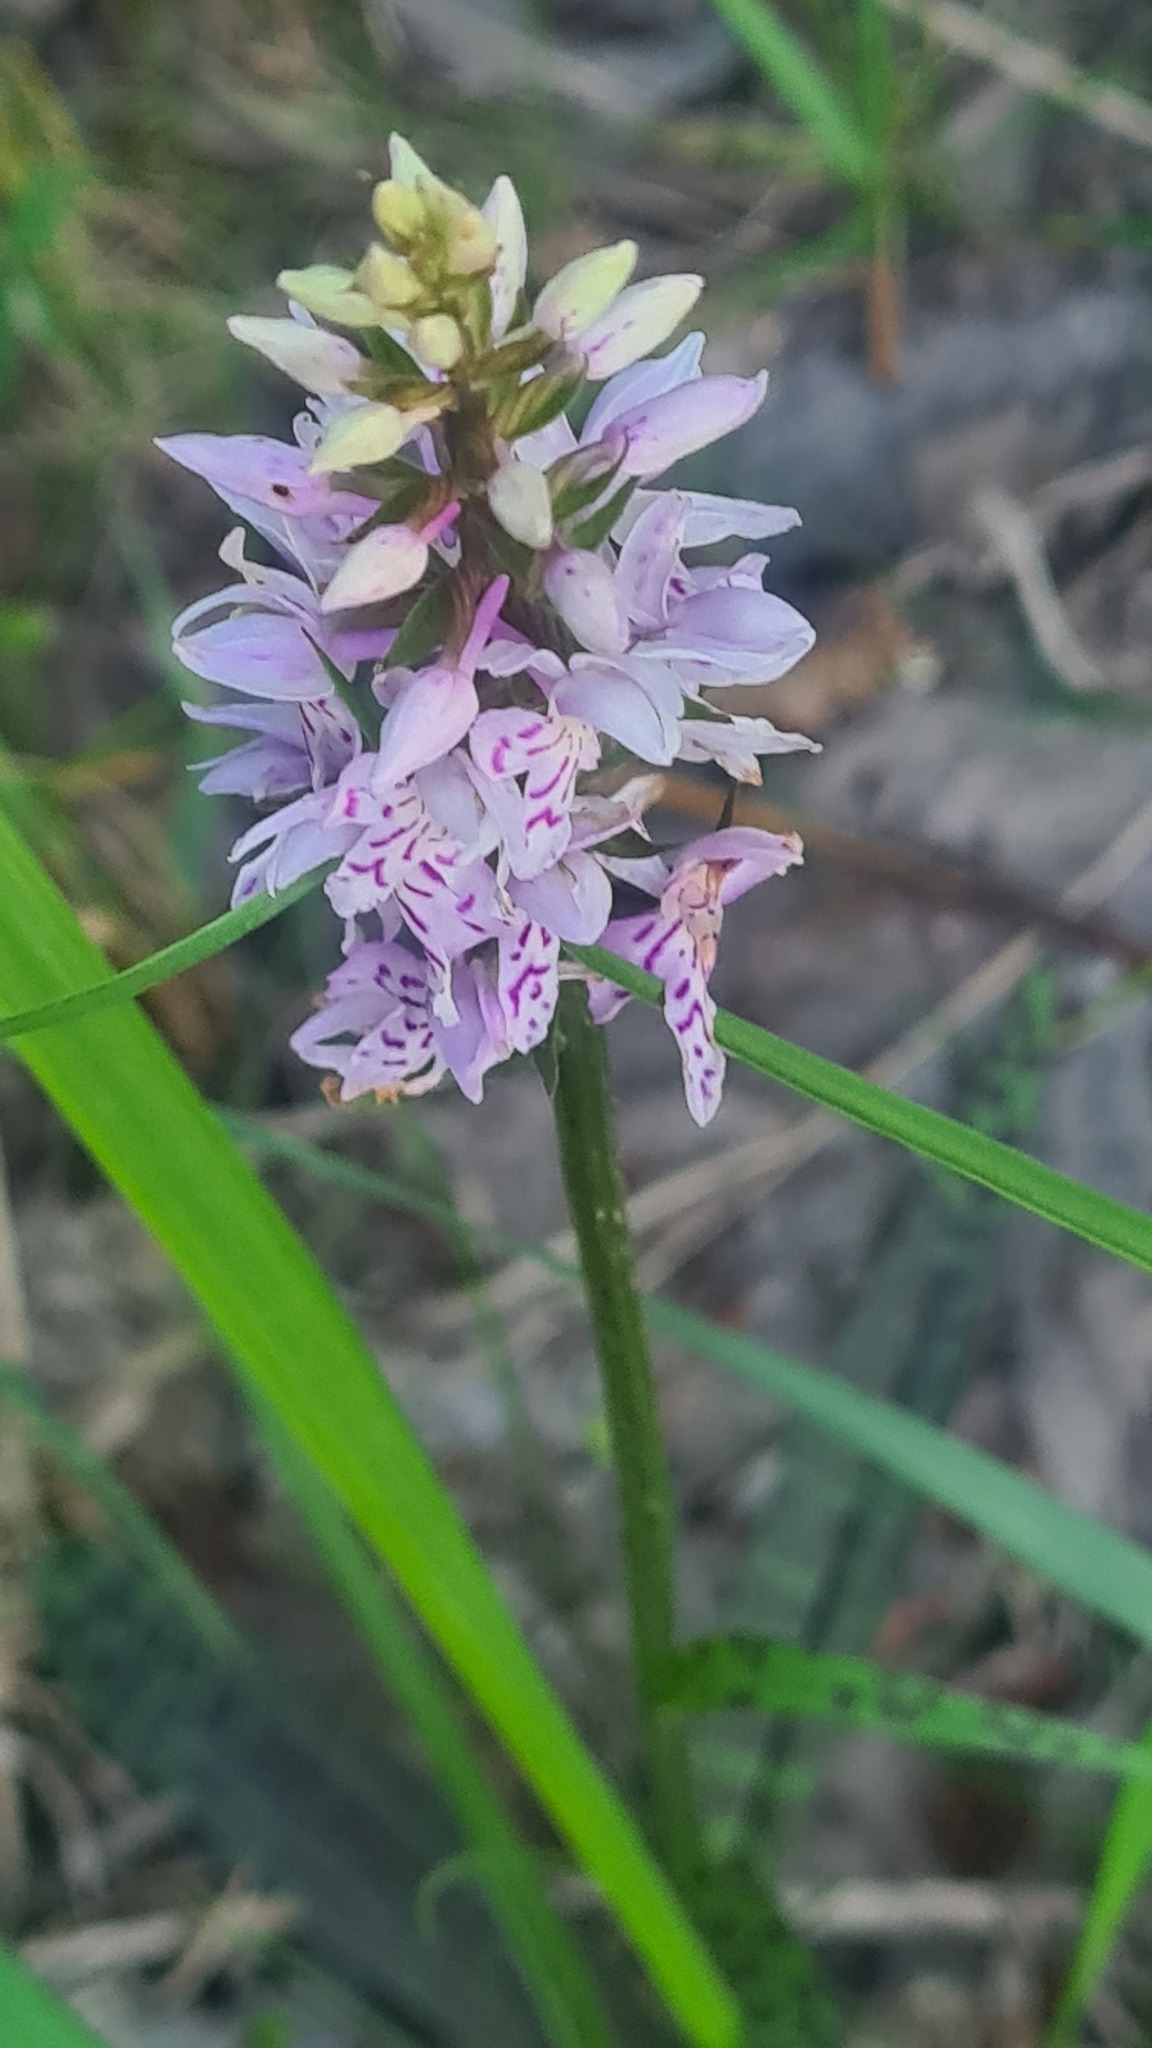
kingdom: Plantae
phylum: Tracheophyta
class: Liliopsida
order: Asparagales
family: Orchidaceae
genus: Dactylorhiza
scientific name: Dactylorhiza maculata
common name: Heath spotted-orchid
